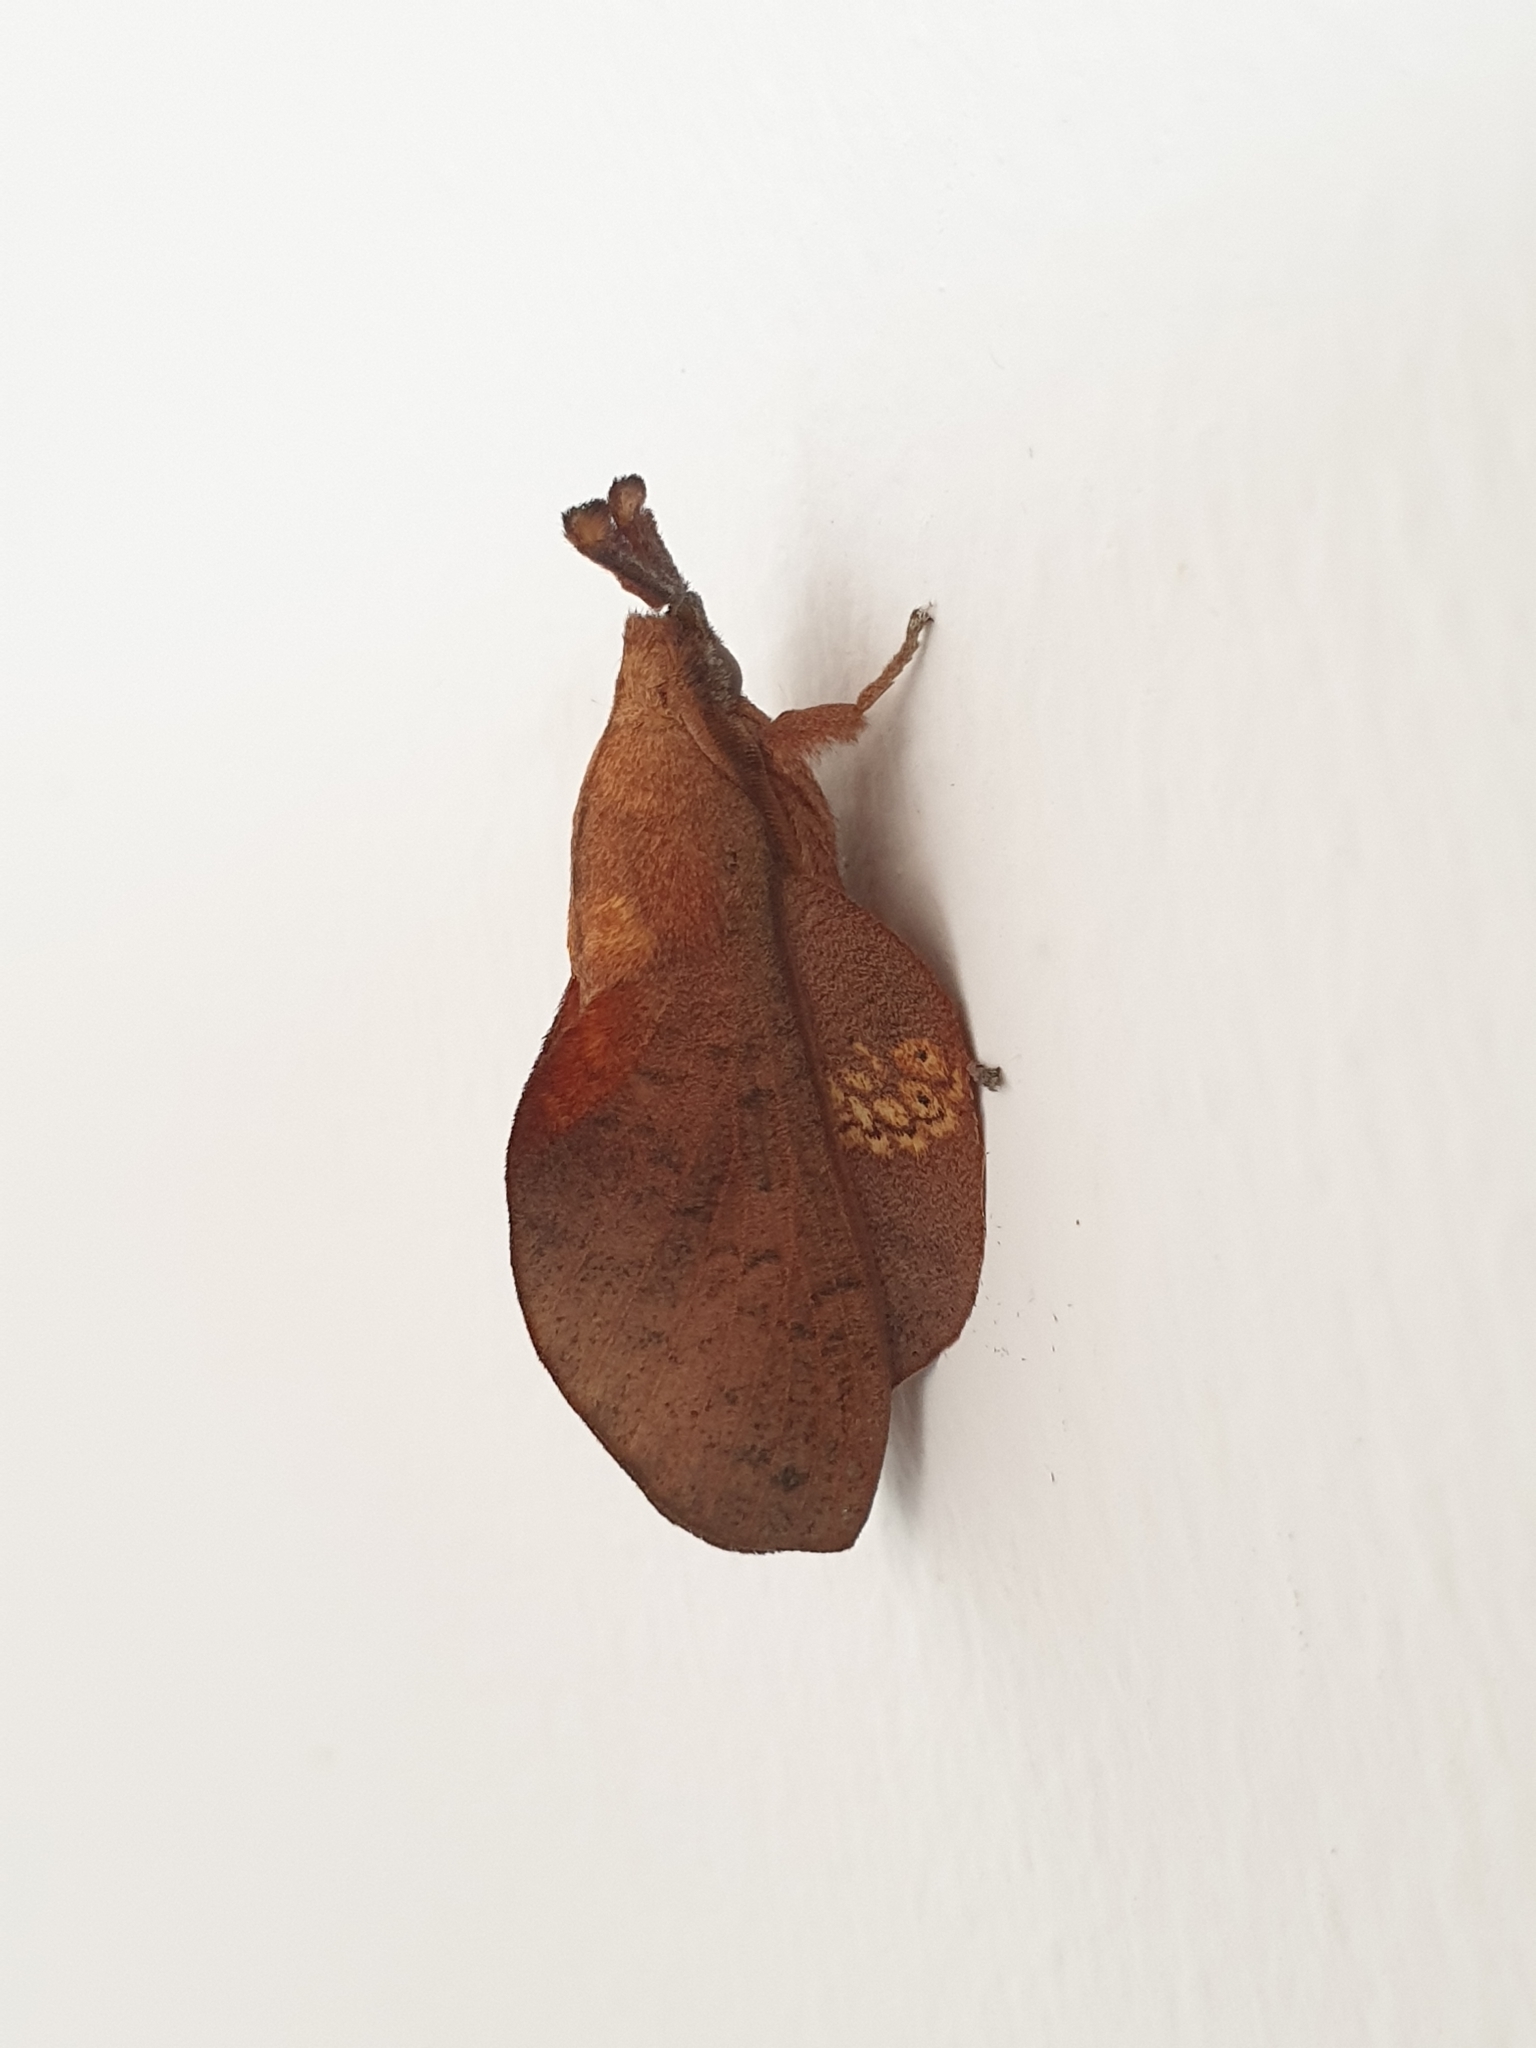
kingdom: Animalia
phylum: Arthropoda
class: Insecta
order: Lepidoptera
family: Lasiocampidae
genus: Gastropacha
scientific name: Gastropacha pardale
